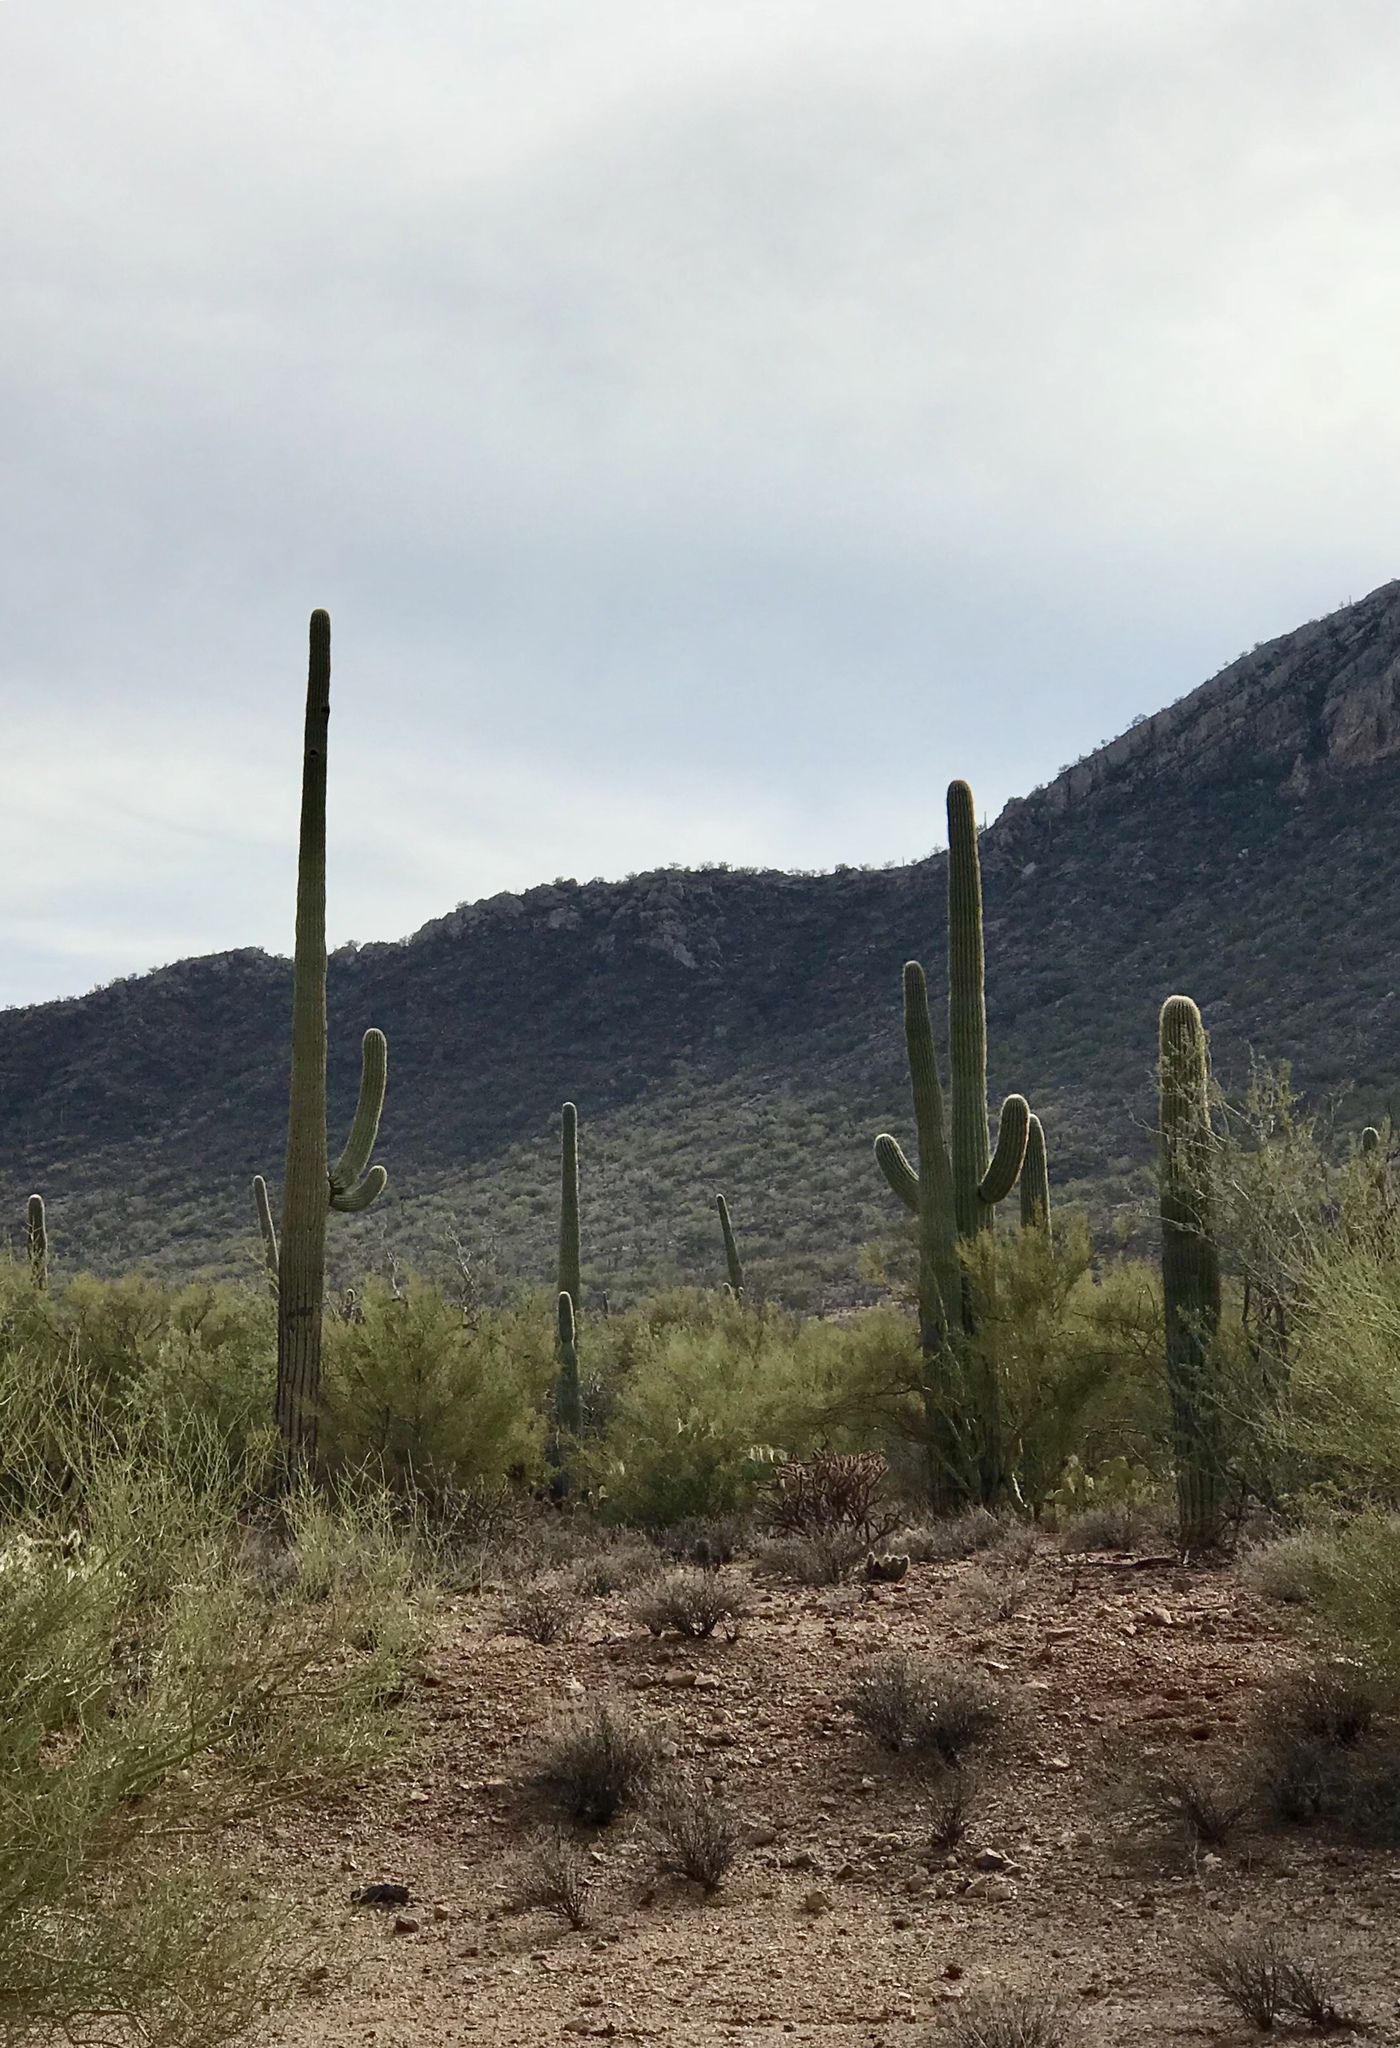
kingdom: Plantae
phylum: Tracheophyta
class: Magnoliopsida
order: Caryophyllales
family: Cactaceae
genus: Carnegiea
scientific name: Carnegiea gigantea
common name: Saguaro
